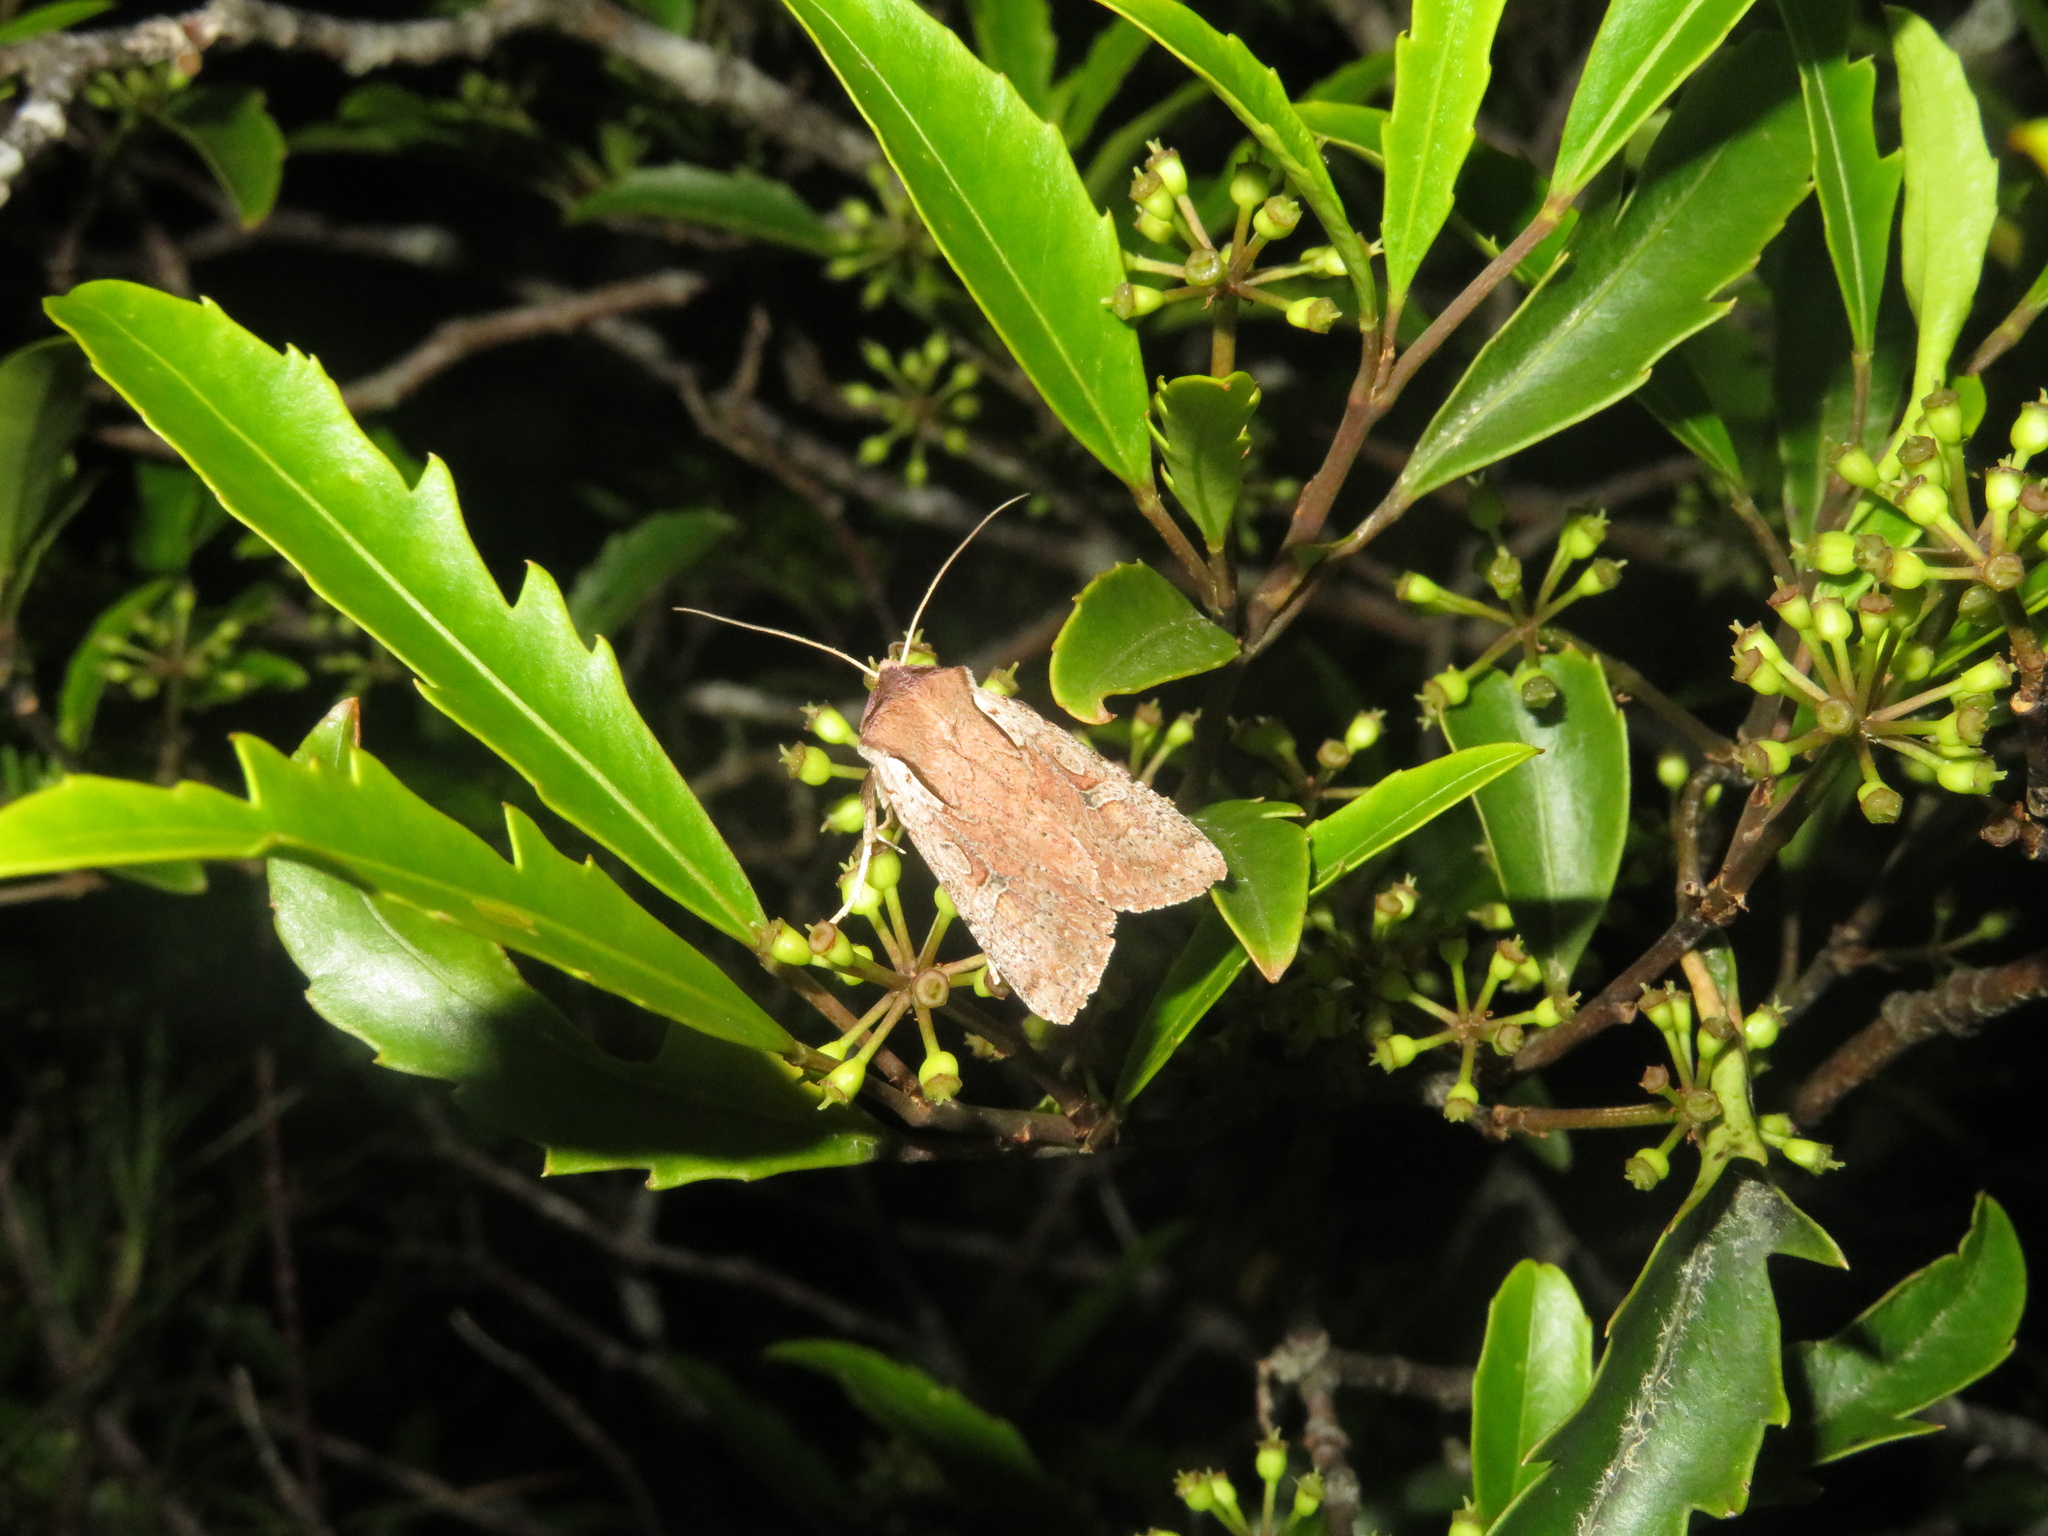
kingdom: Animalia
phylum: Arthropoda
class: Insecta
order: Lepidoptera
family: Noctuidae
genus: Ichneutica
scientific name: Ichneutica atristriga
